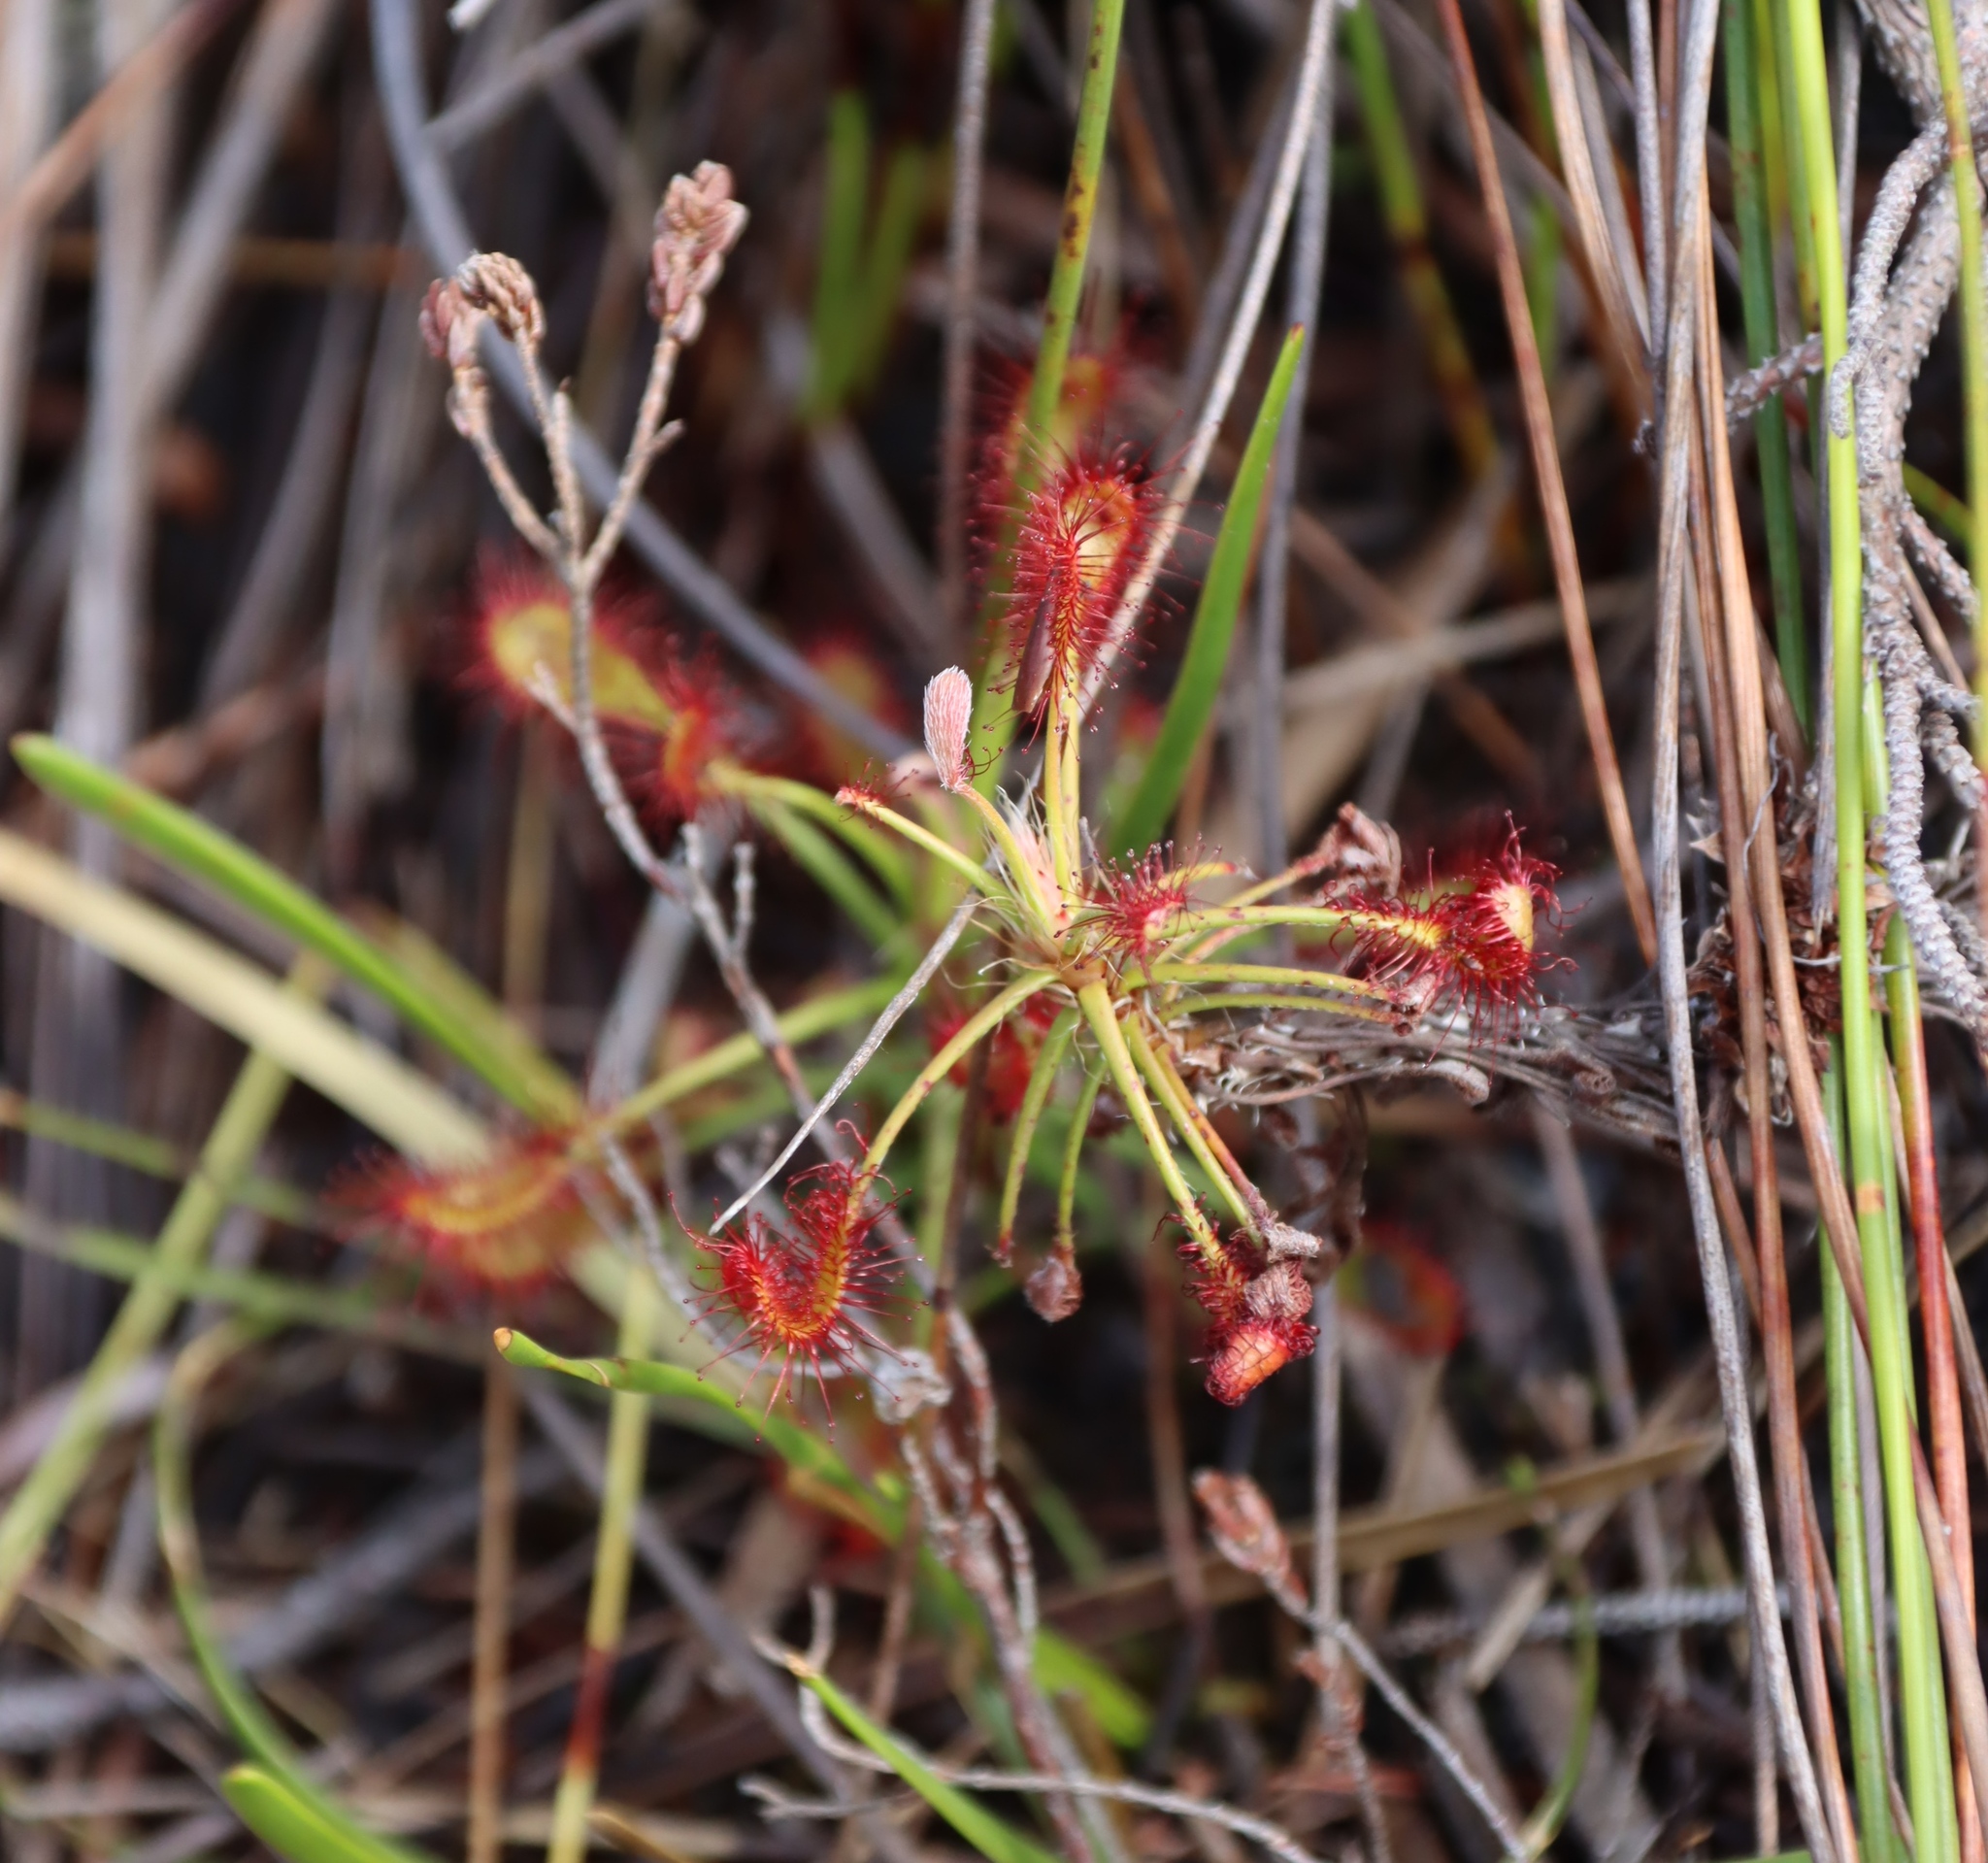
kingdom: Plantae
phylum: Tracheophyta
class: Magnoliopsida
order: Caryophyllales
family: Droseraceae
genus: Drosera
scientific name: Drosera glabripes
